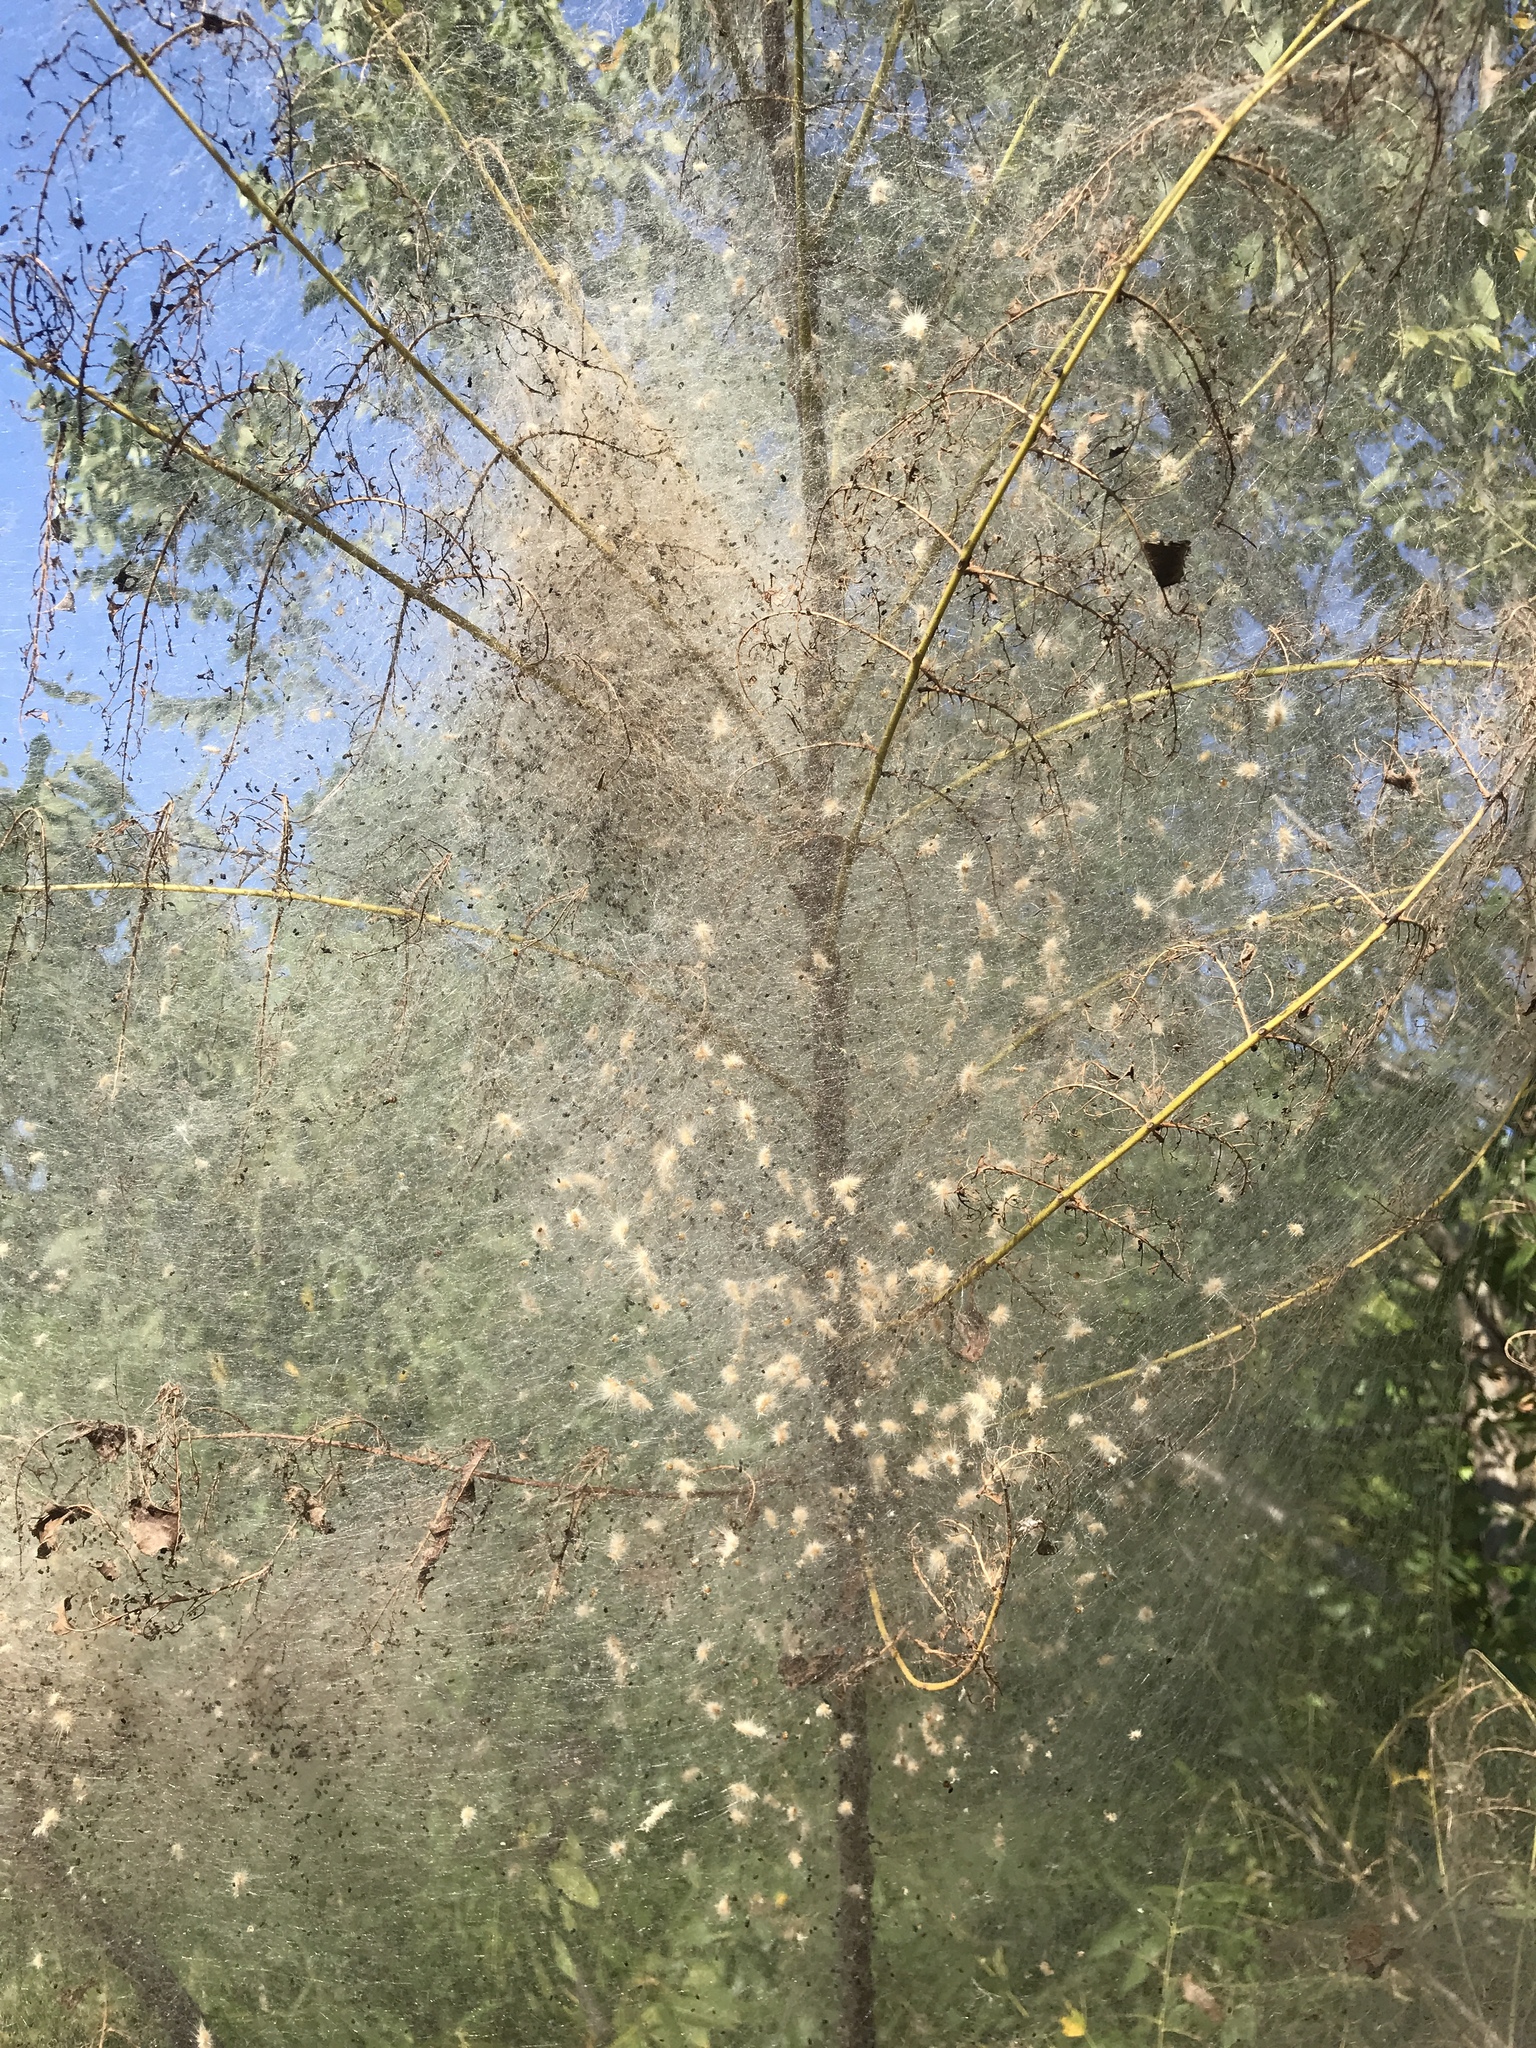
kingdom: Animalia
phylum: Arthropoda
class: Insecta
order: Lepidoptera
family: Erebidae
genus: Hyphantria
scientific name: Hyphantria cunea
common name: American white moth
